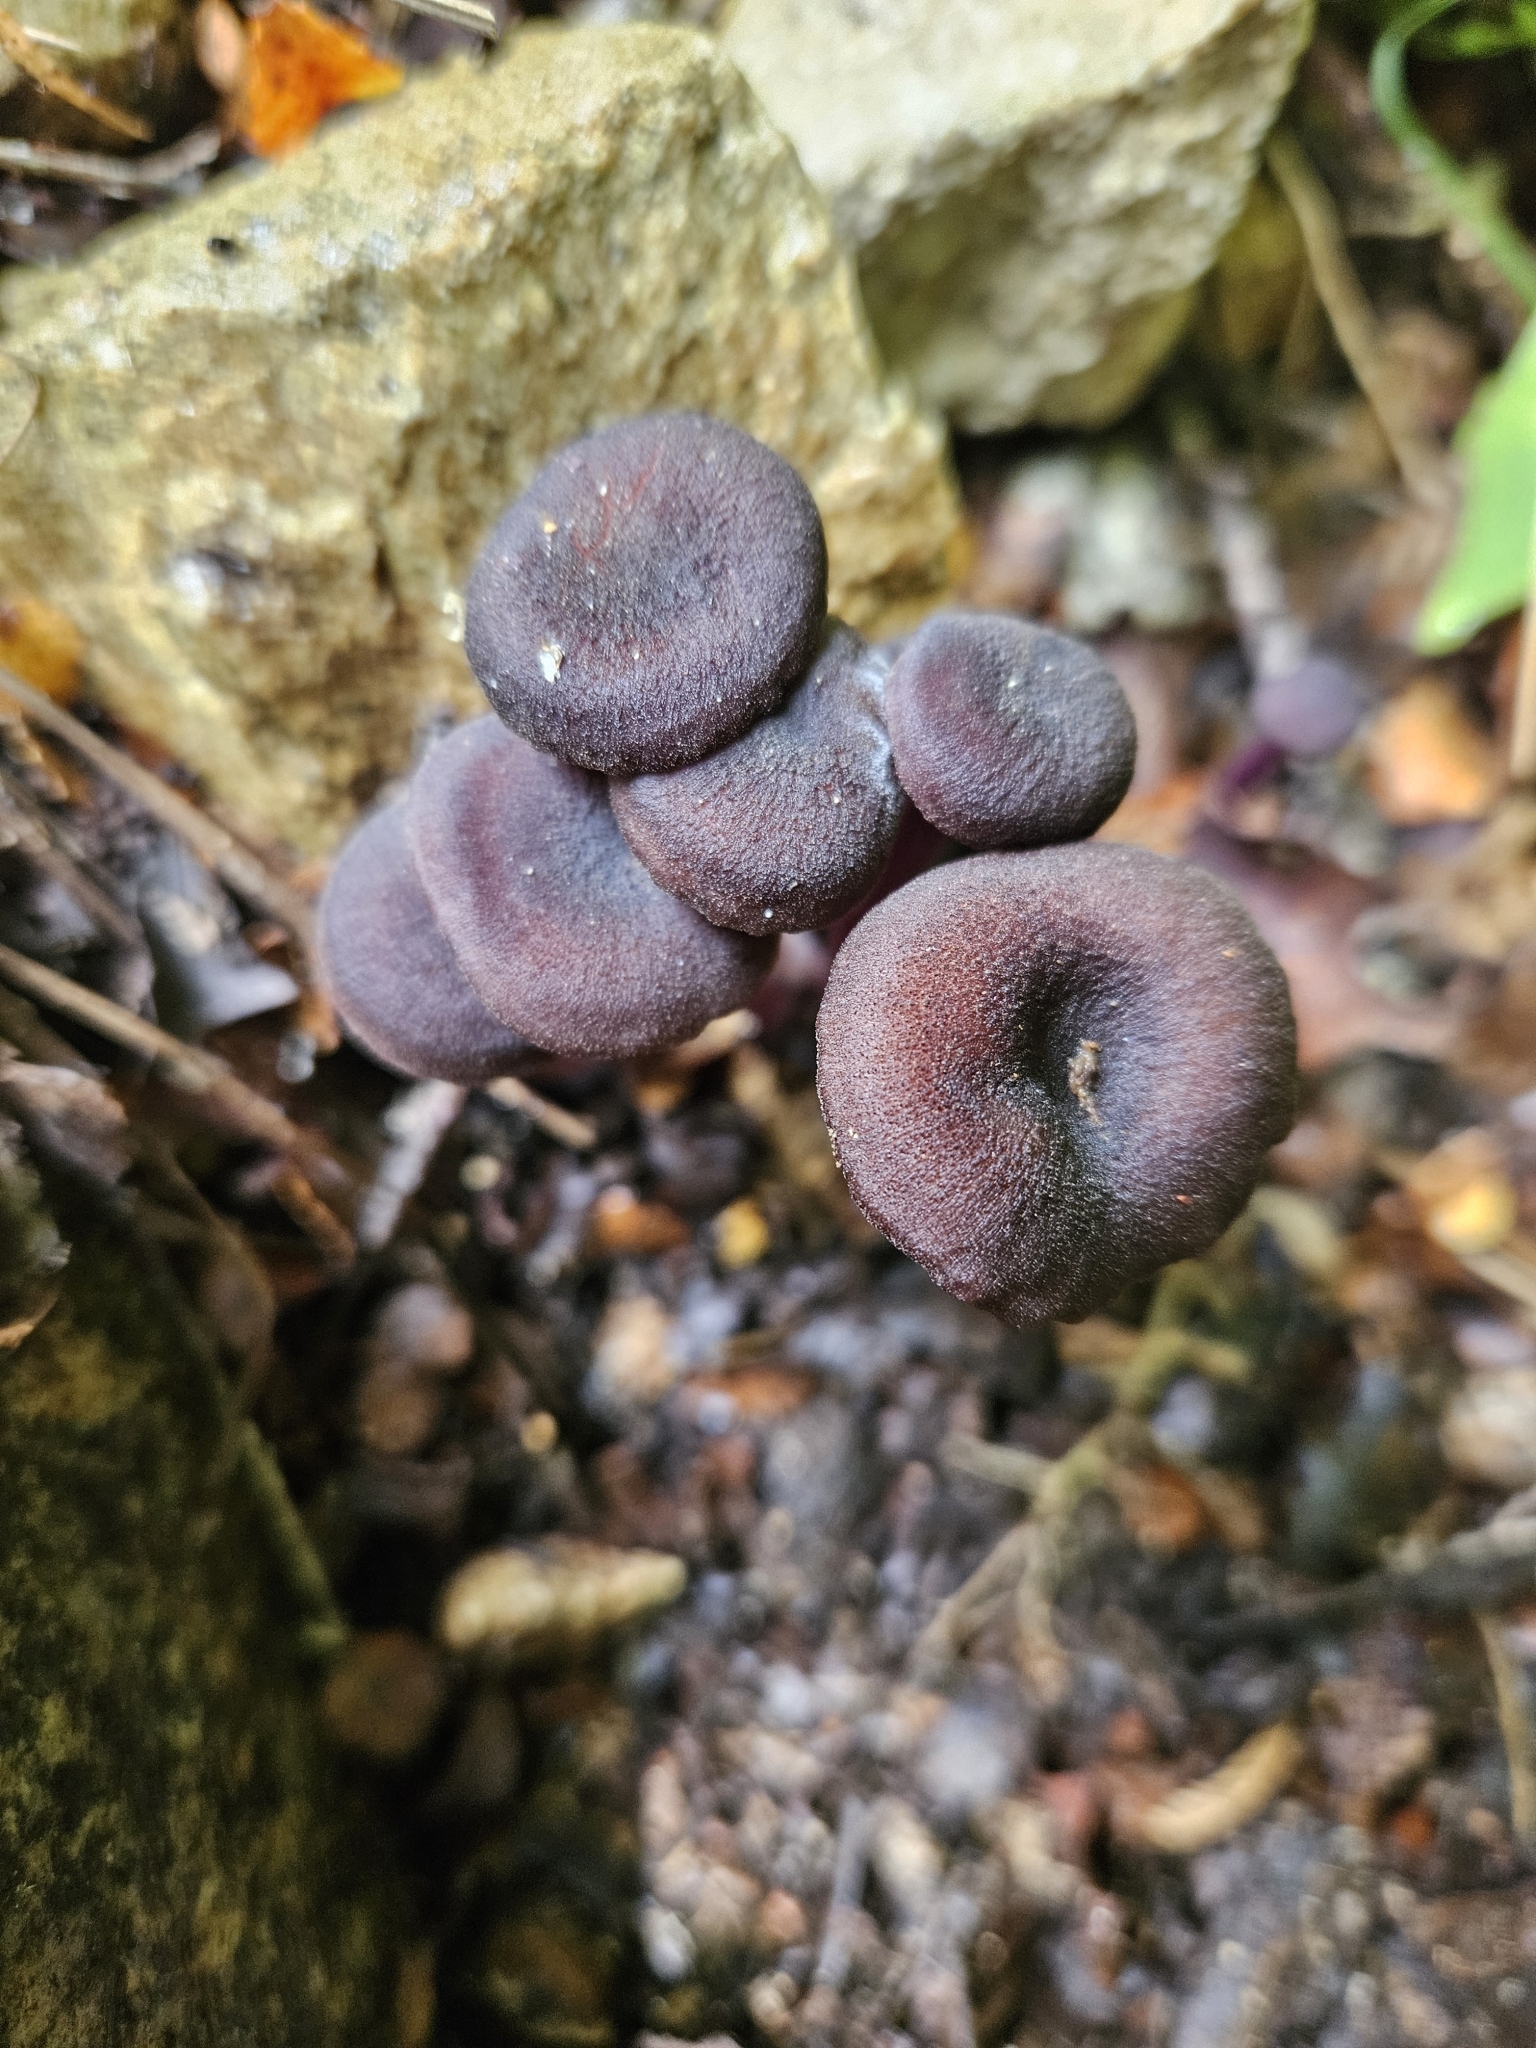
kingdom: Fungi
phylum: Basidiomycota
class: Agaricomycetes
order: Agaricales
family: Hydnangiaceae
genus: Laccaria
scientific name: Laccaria violaceonigra
